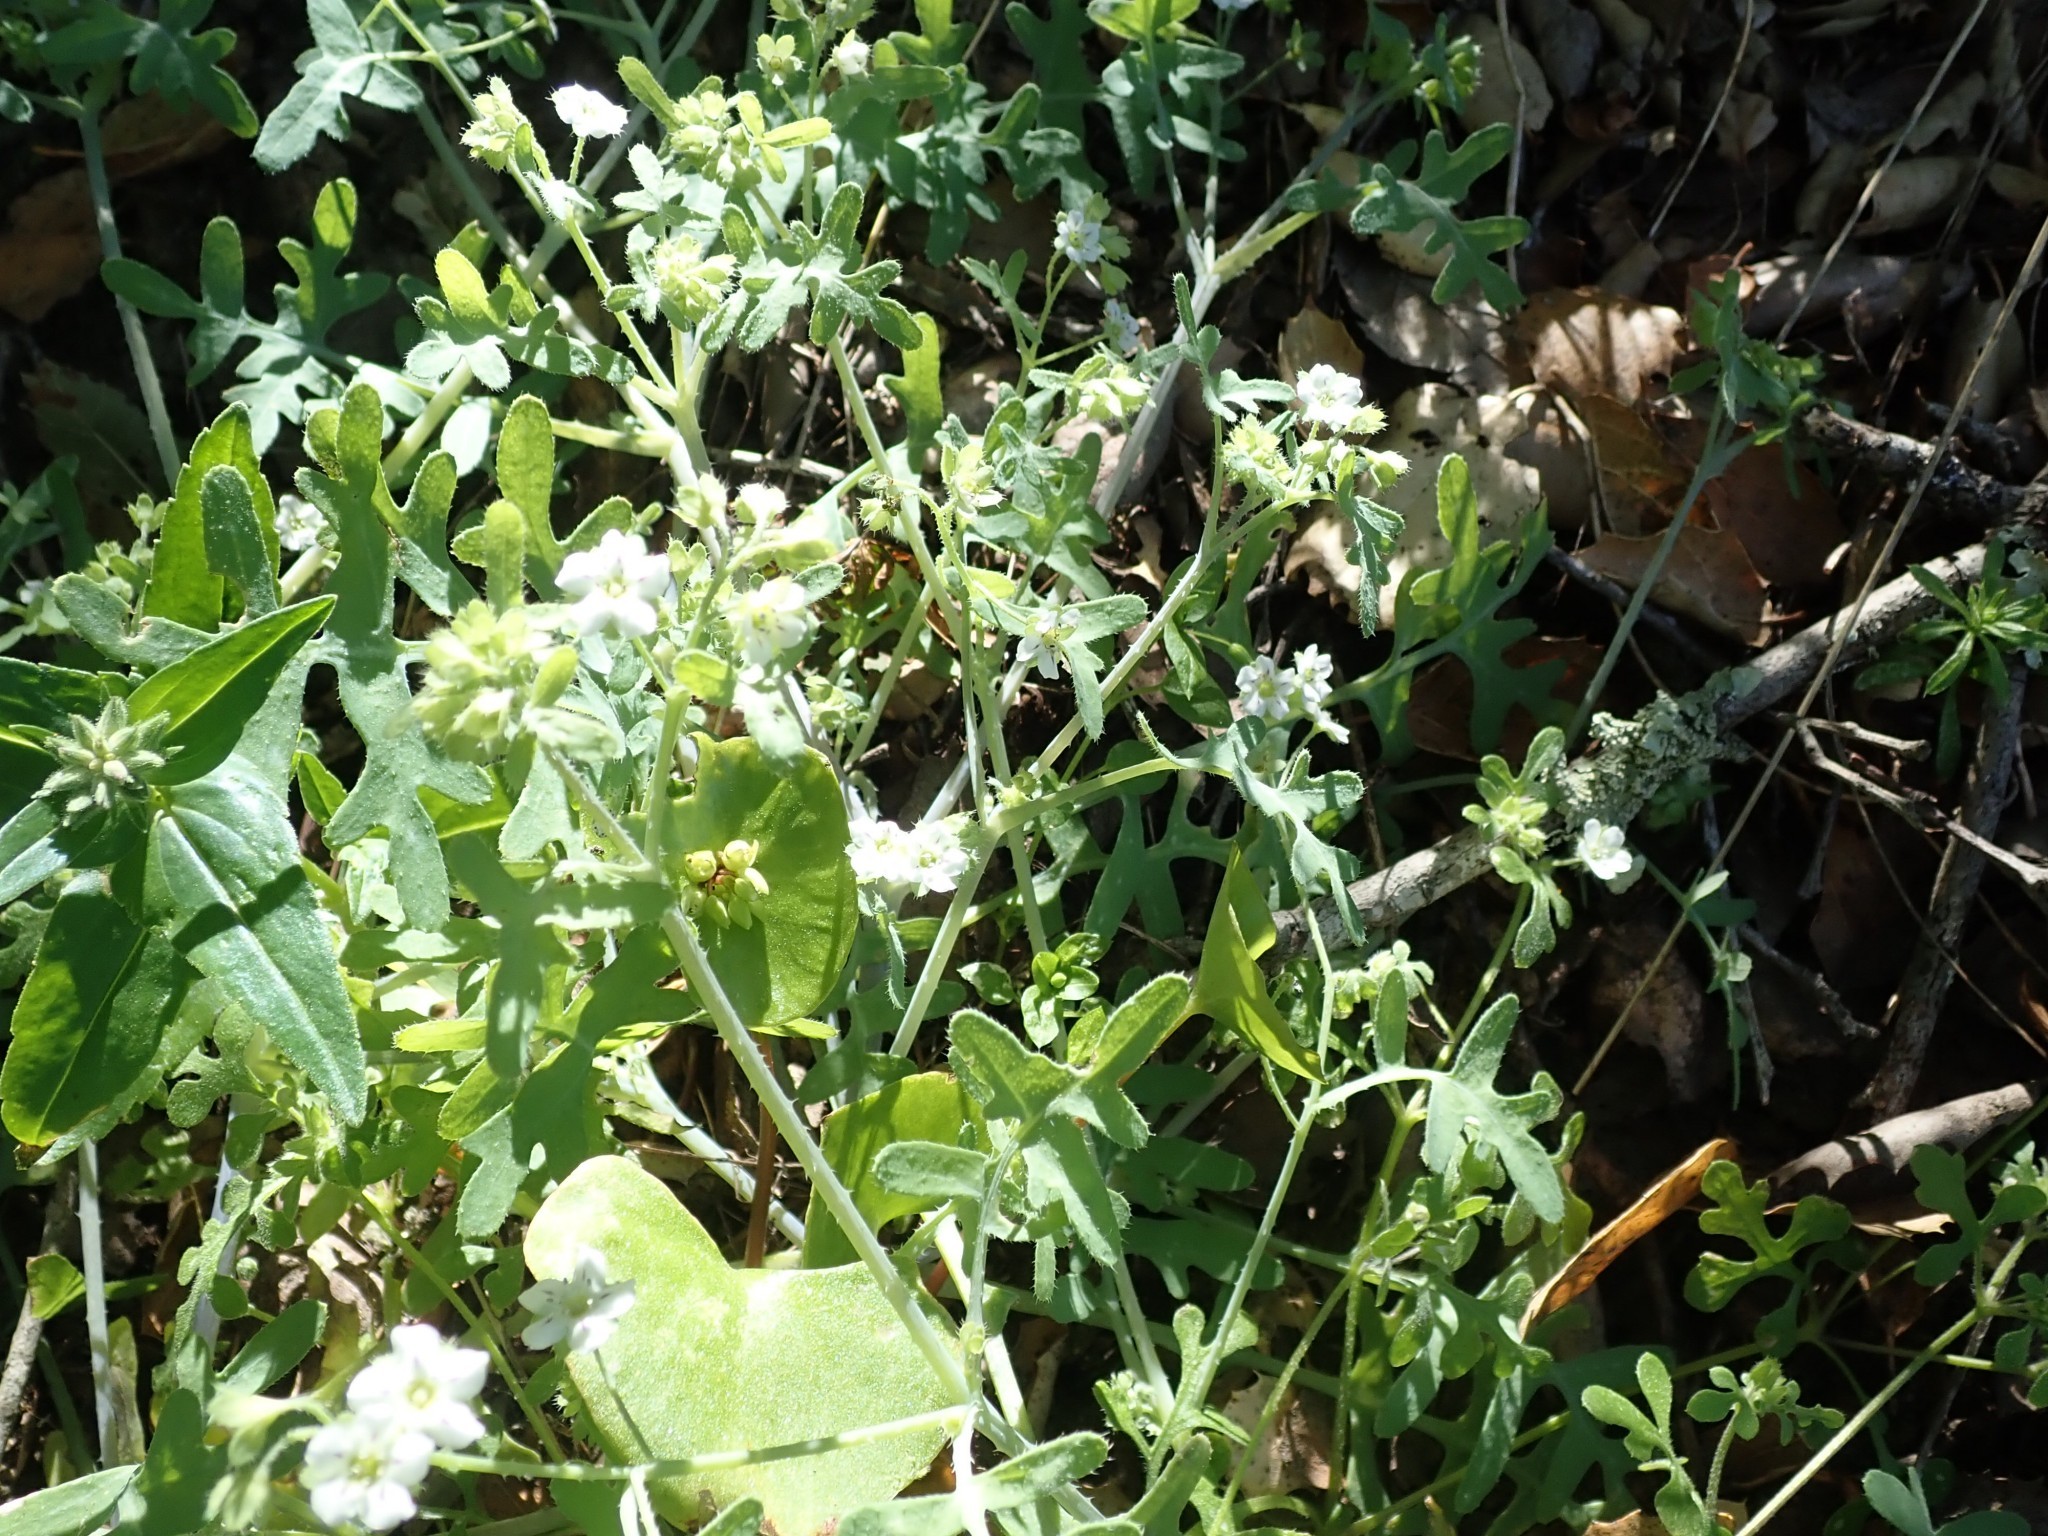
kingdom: Plantae
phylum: Tracheophyta
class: Magnoliopsida
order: Boraginales
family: Hydrophyllaceae
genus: Pholistoma
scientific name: Pholistoma membranaceum
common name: White fiesta-flower
